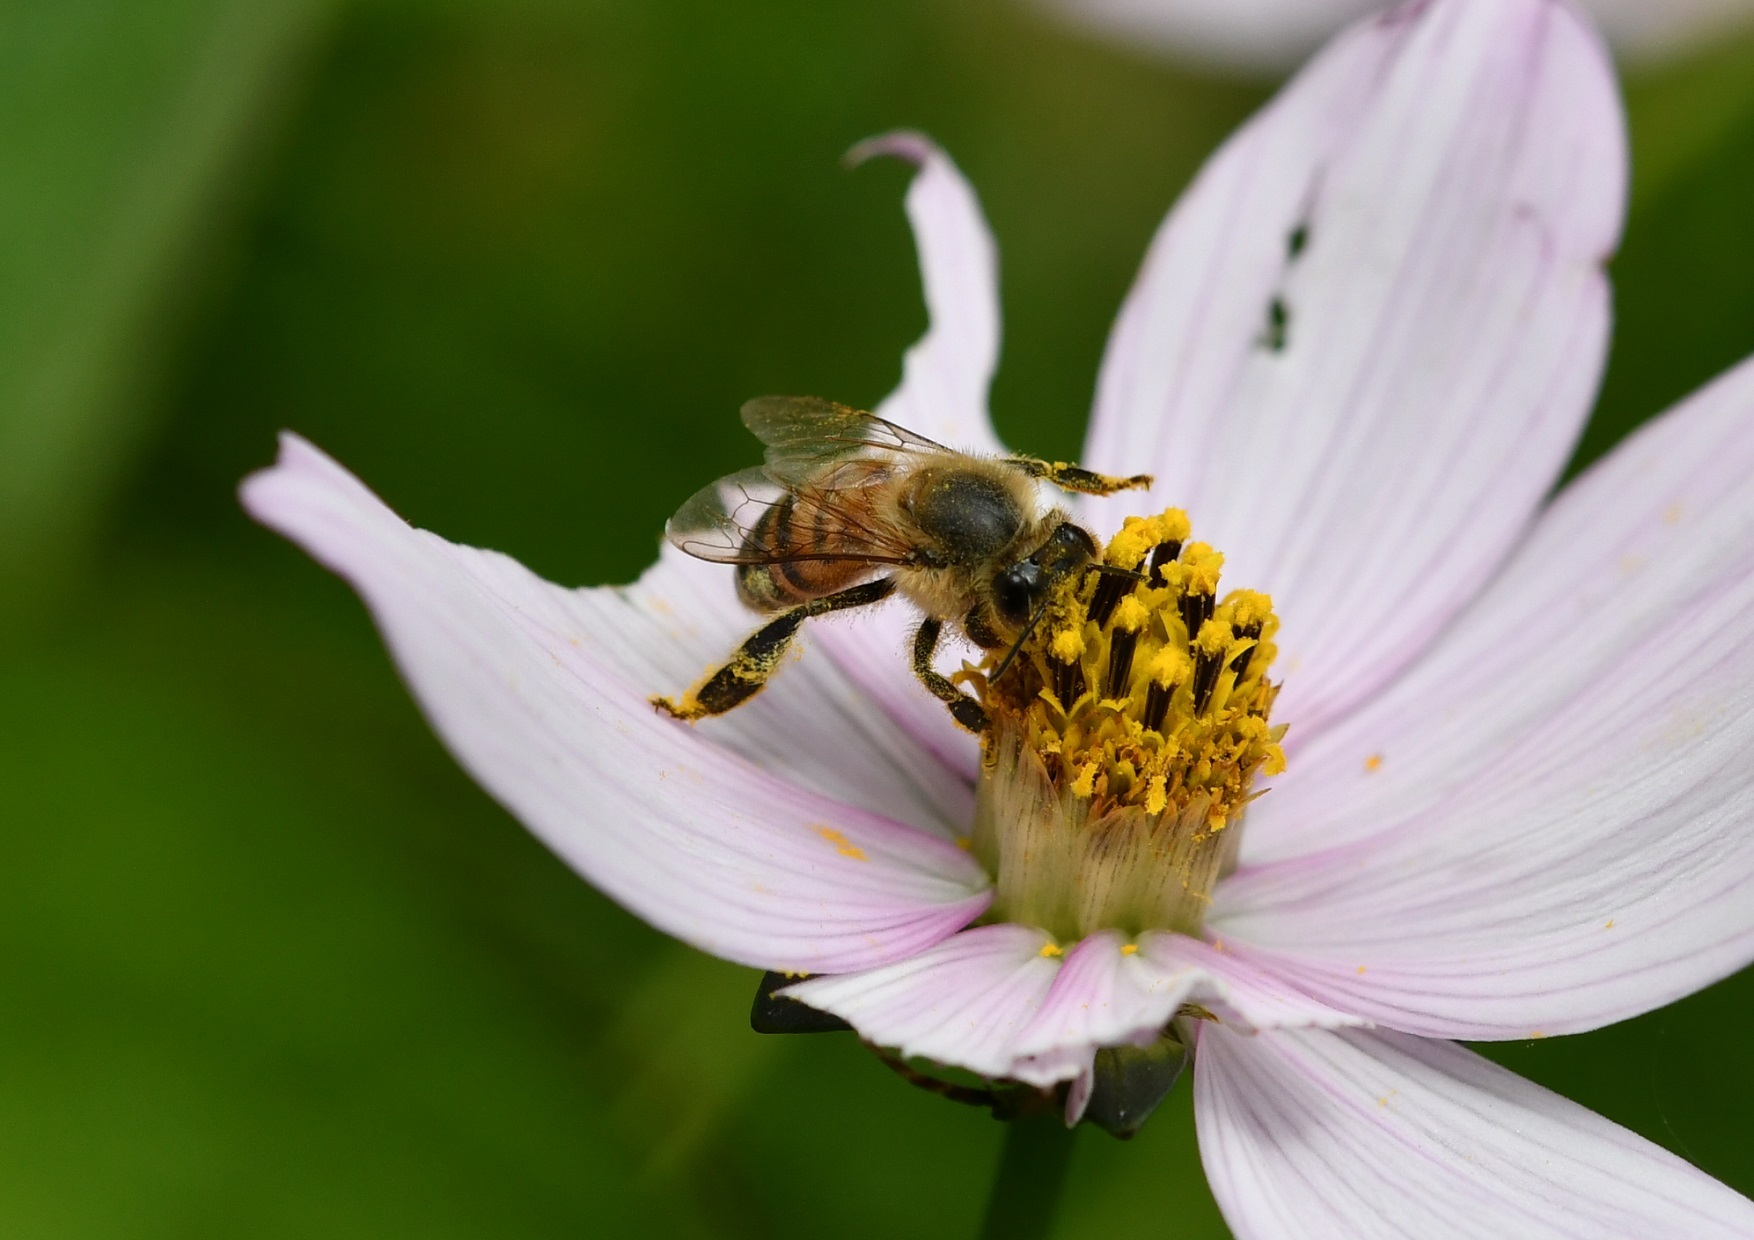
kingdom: Animalia
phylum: Arthropoda
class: Insecta
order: Hymenoptera
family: Apidae
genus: Apis
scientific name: Apis mellifera
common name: Honey bee
